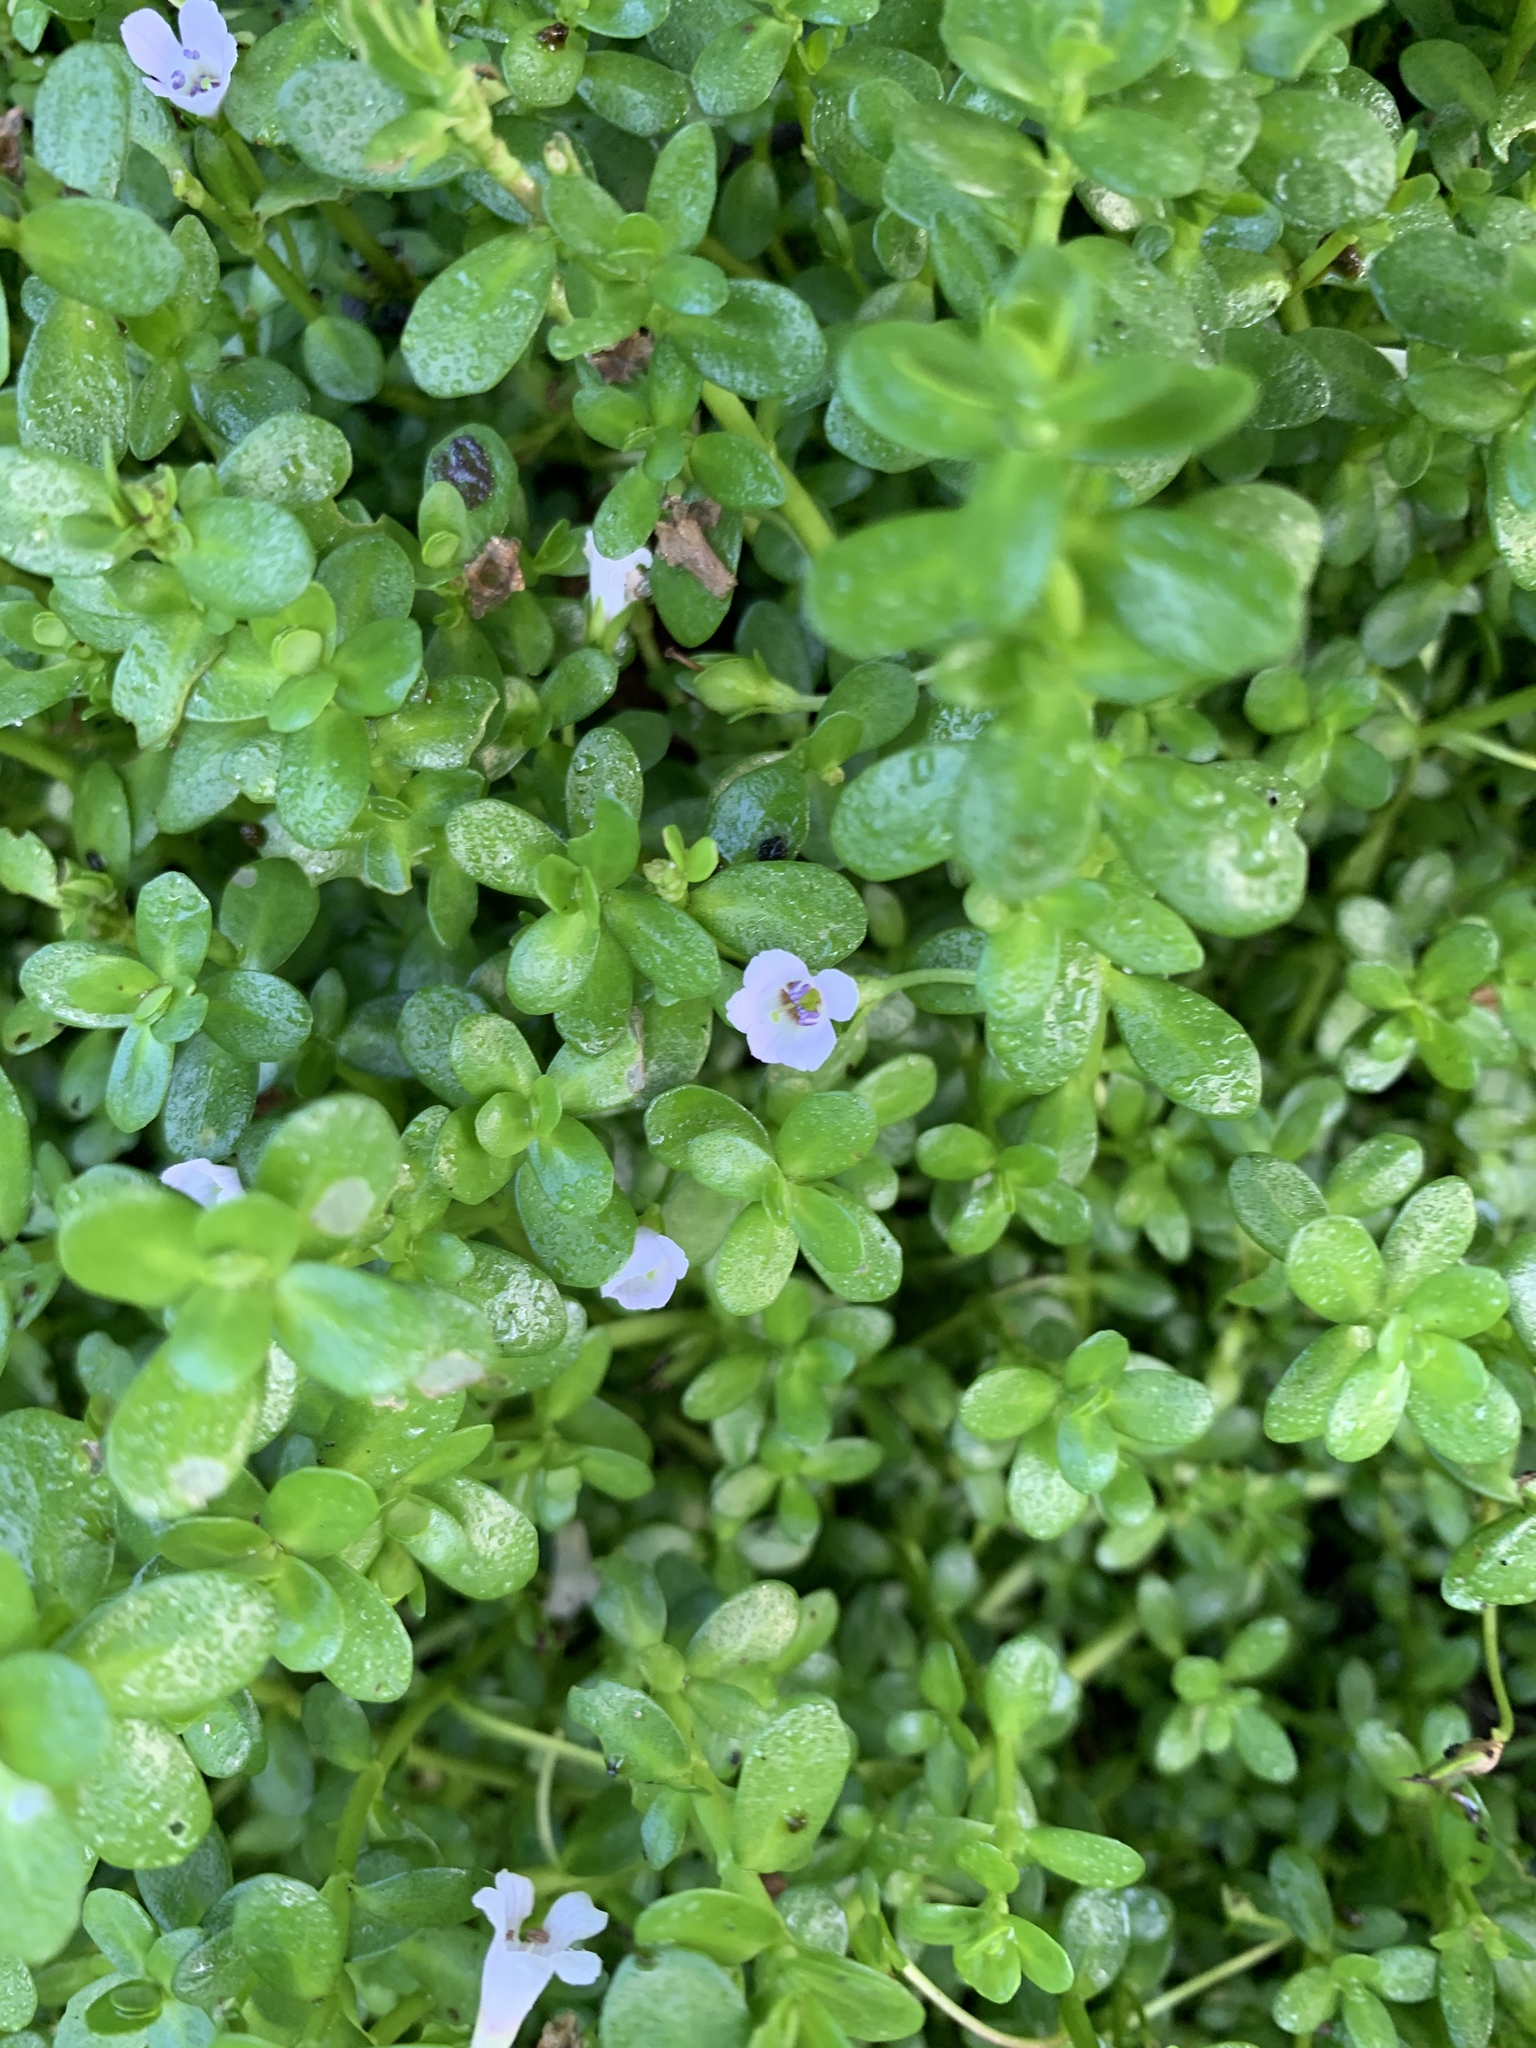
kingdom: Plantae
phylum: Tracheophyta
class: Magnoliopsida
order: Lamiales
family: Plantaginaceae
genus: Bacopa
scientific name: Bacopa monnieri
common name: Indian-pennywort
